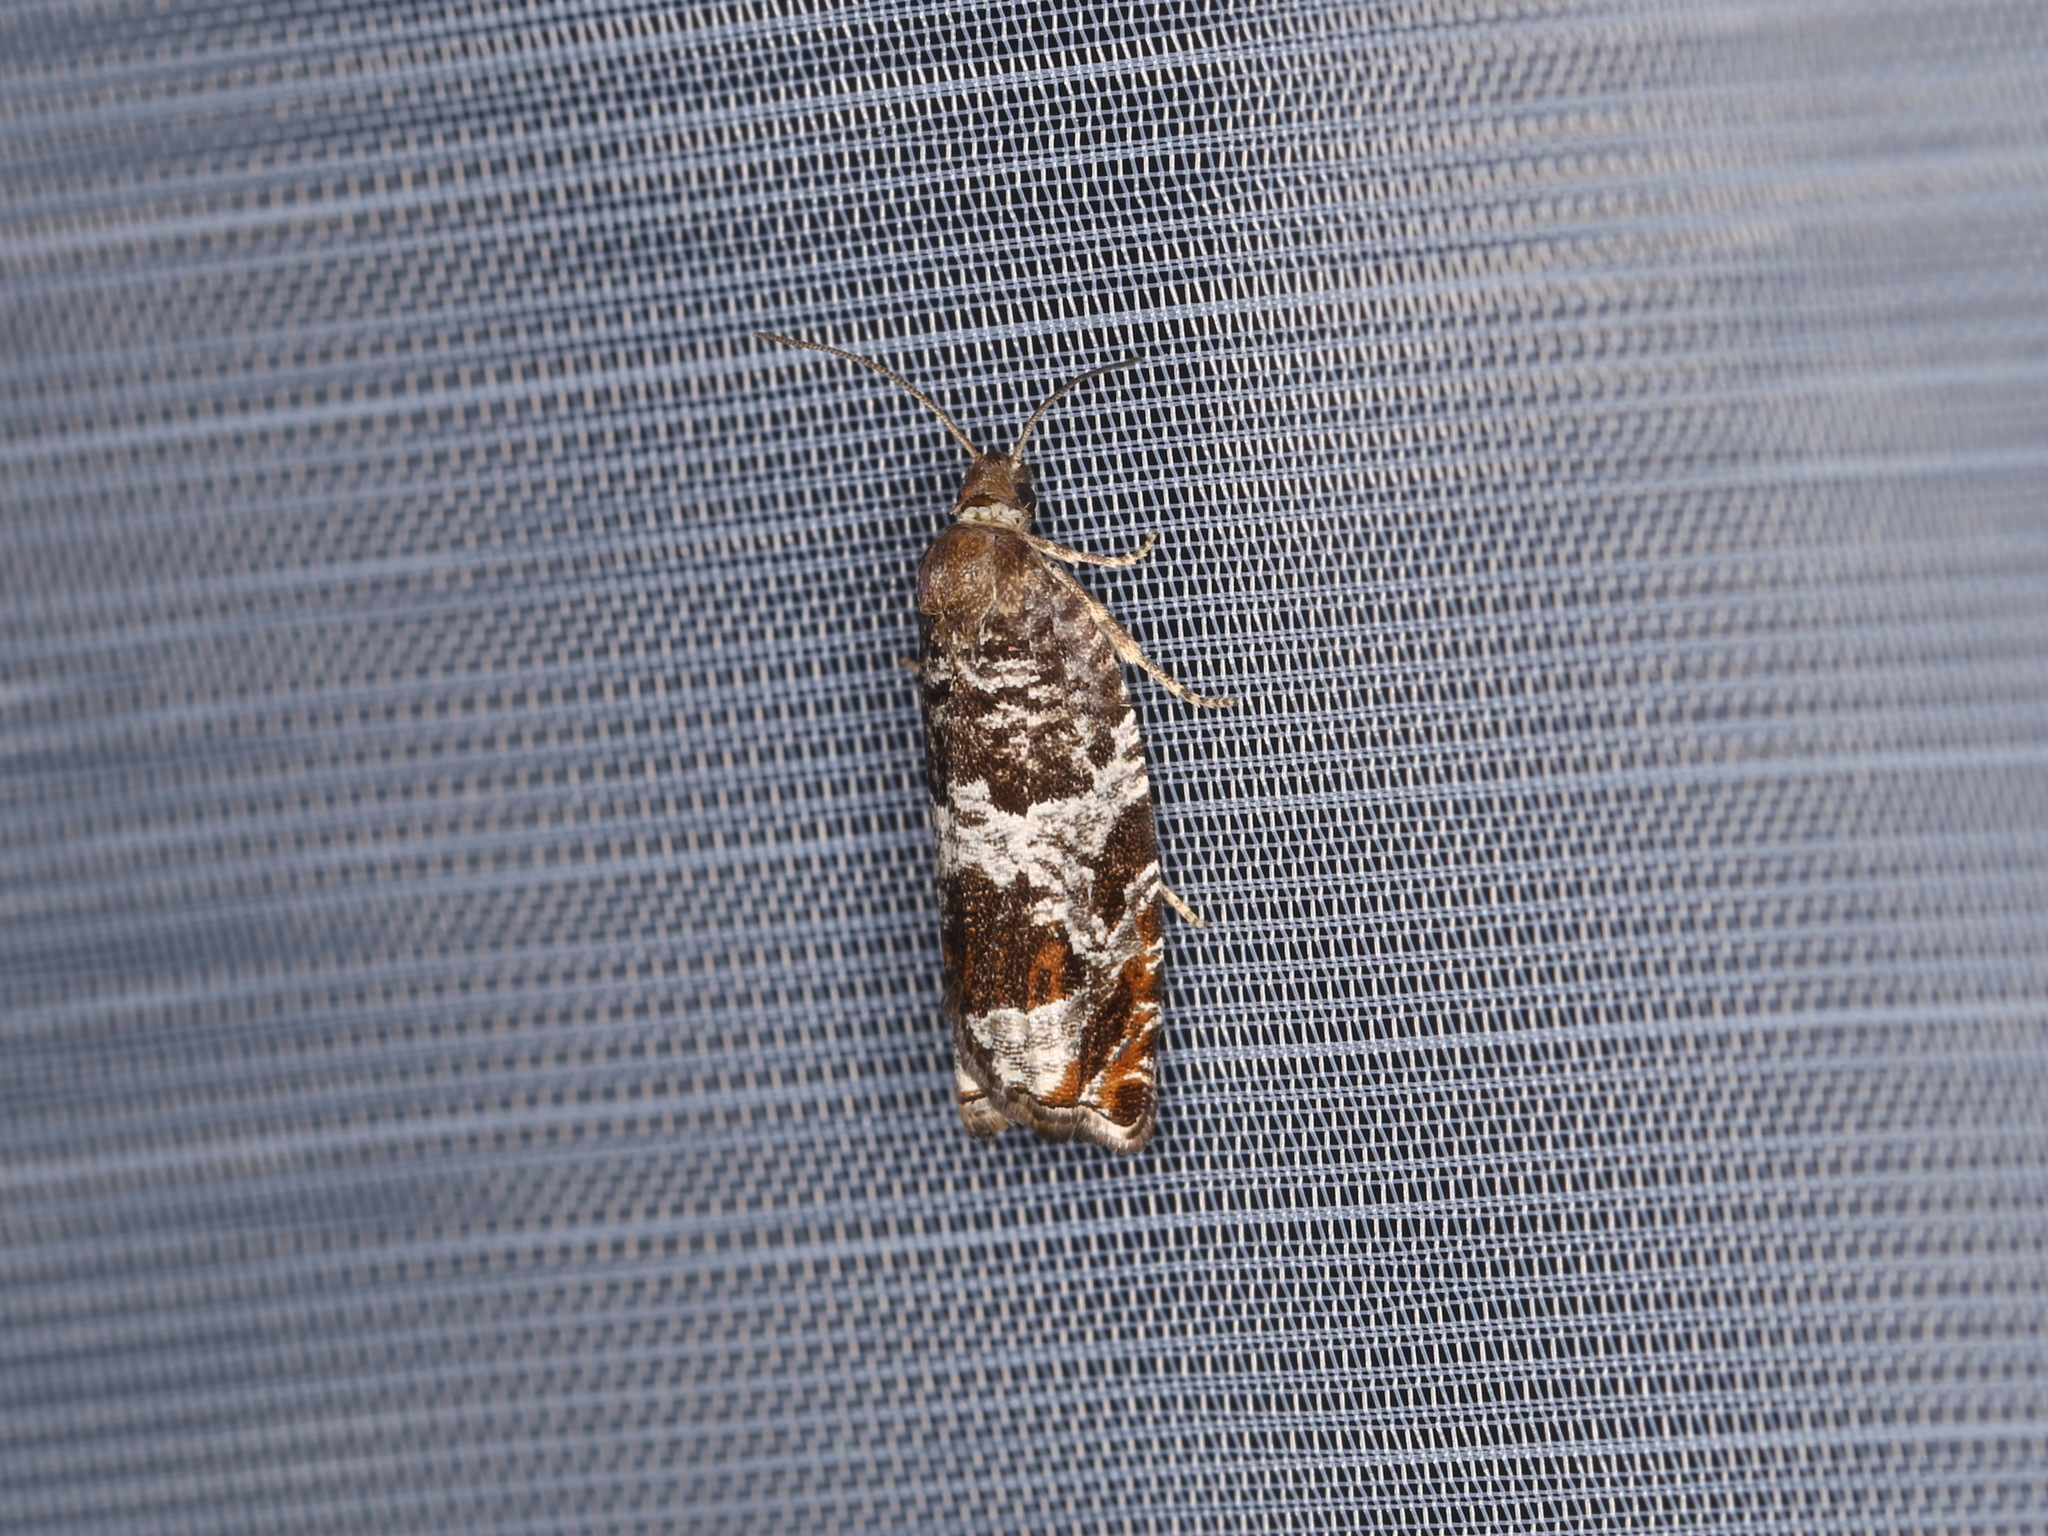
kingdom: Animalia
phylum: Arthropoda
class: Insecta
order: Lepidoptera
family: Tortricidae
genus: Ancylis
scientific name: Ancylis achatana
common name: Triangle-marked roller
